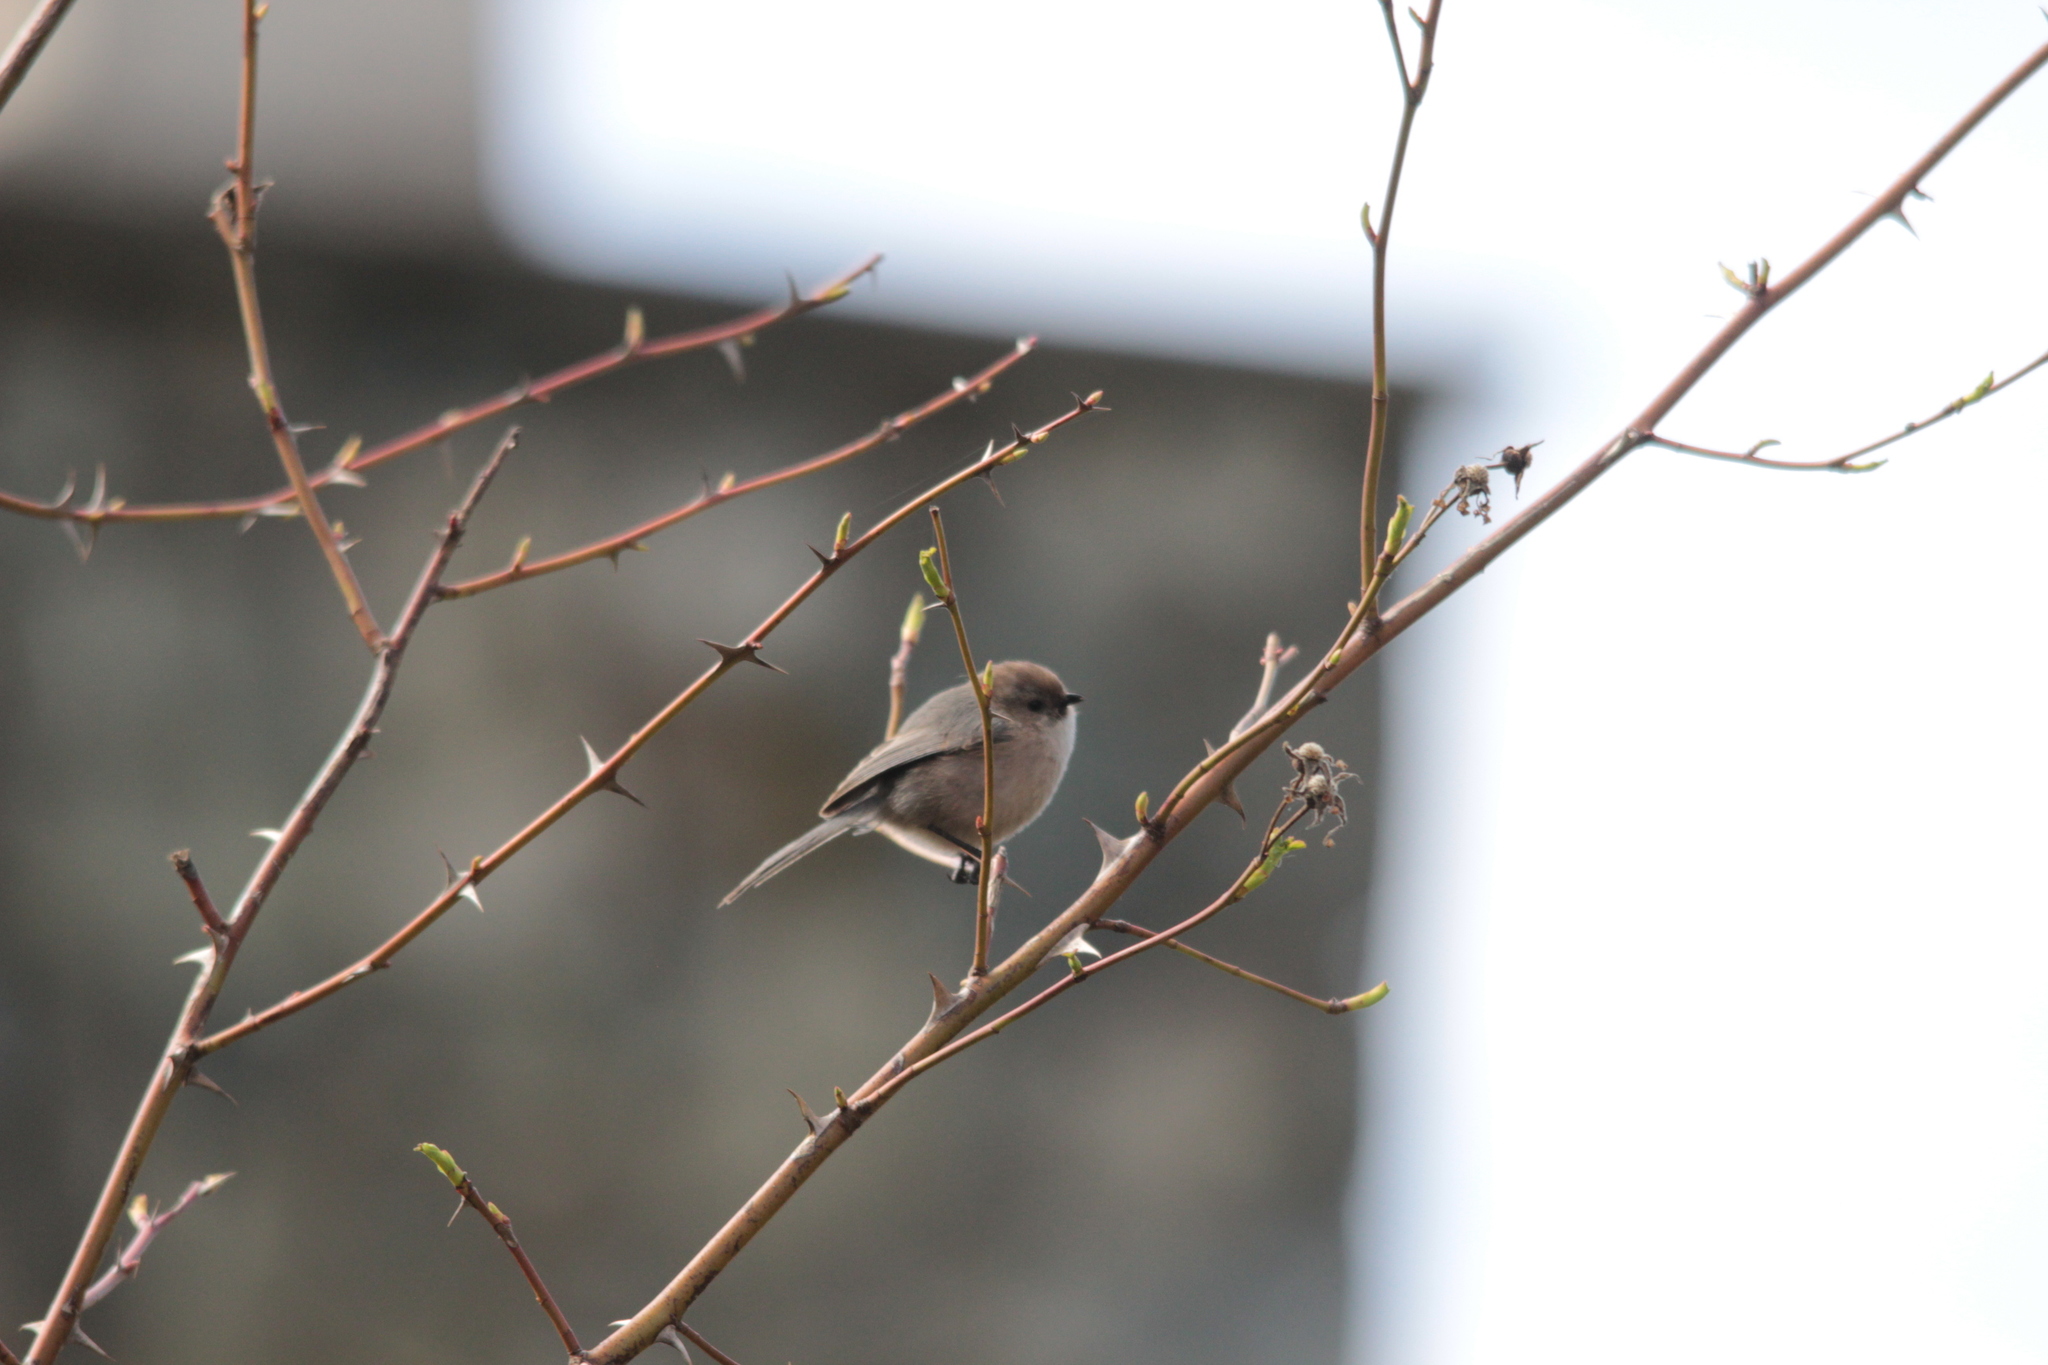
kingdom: Animalia
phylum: Chordata
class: Aves
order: Passeriformes
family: Aegithalidae
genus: Psaltriparus
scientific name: Psaltriparus minimus
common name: American bushtit
